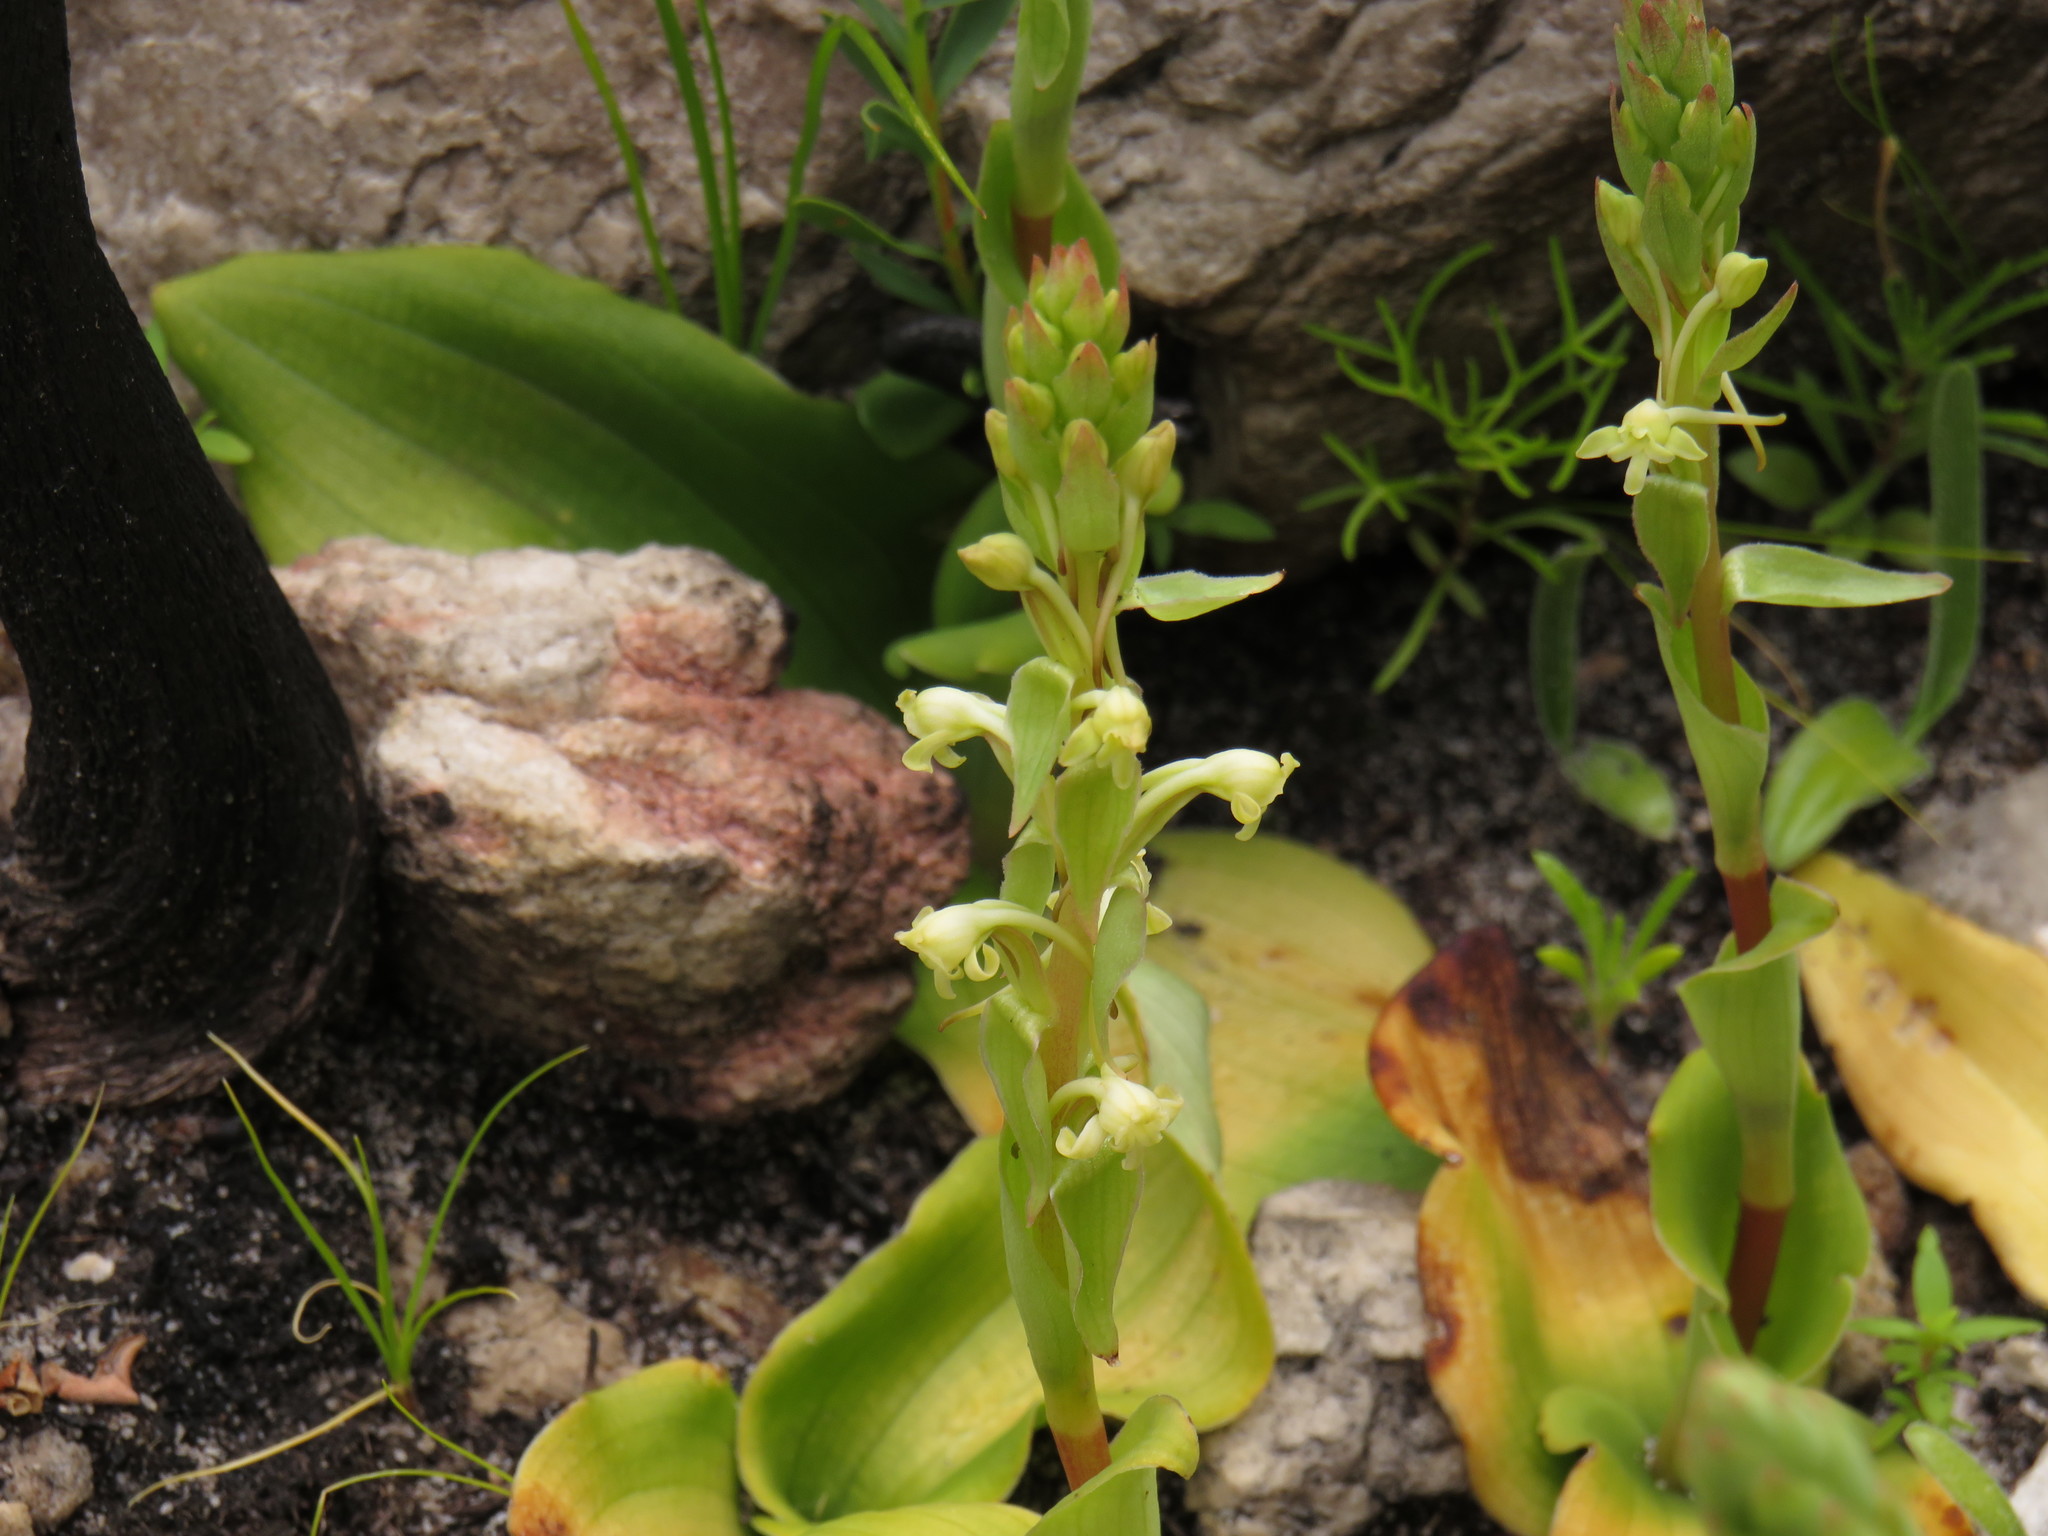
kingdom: Plantae
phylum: Tracheophyta
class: Liliopsida
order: Asparagales
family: Orchidaceae
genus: Satyrium
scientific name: Satyrium humile
